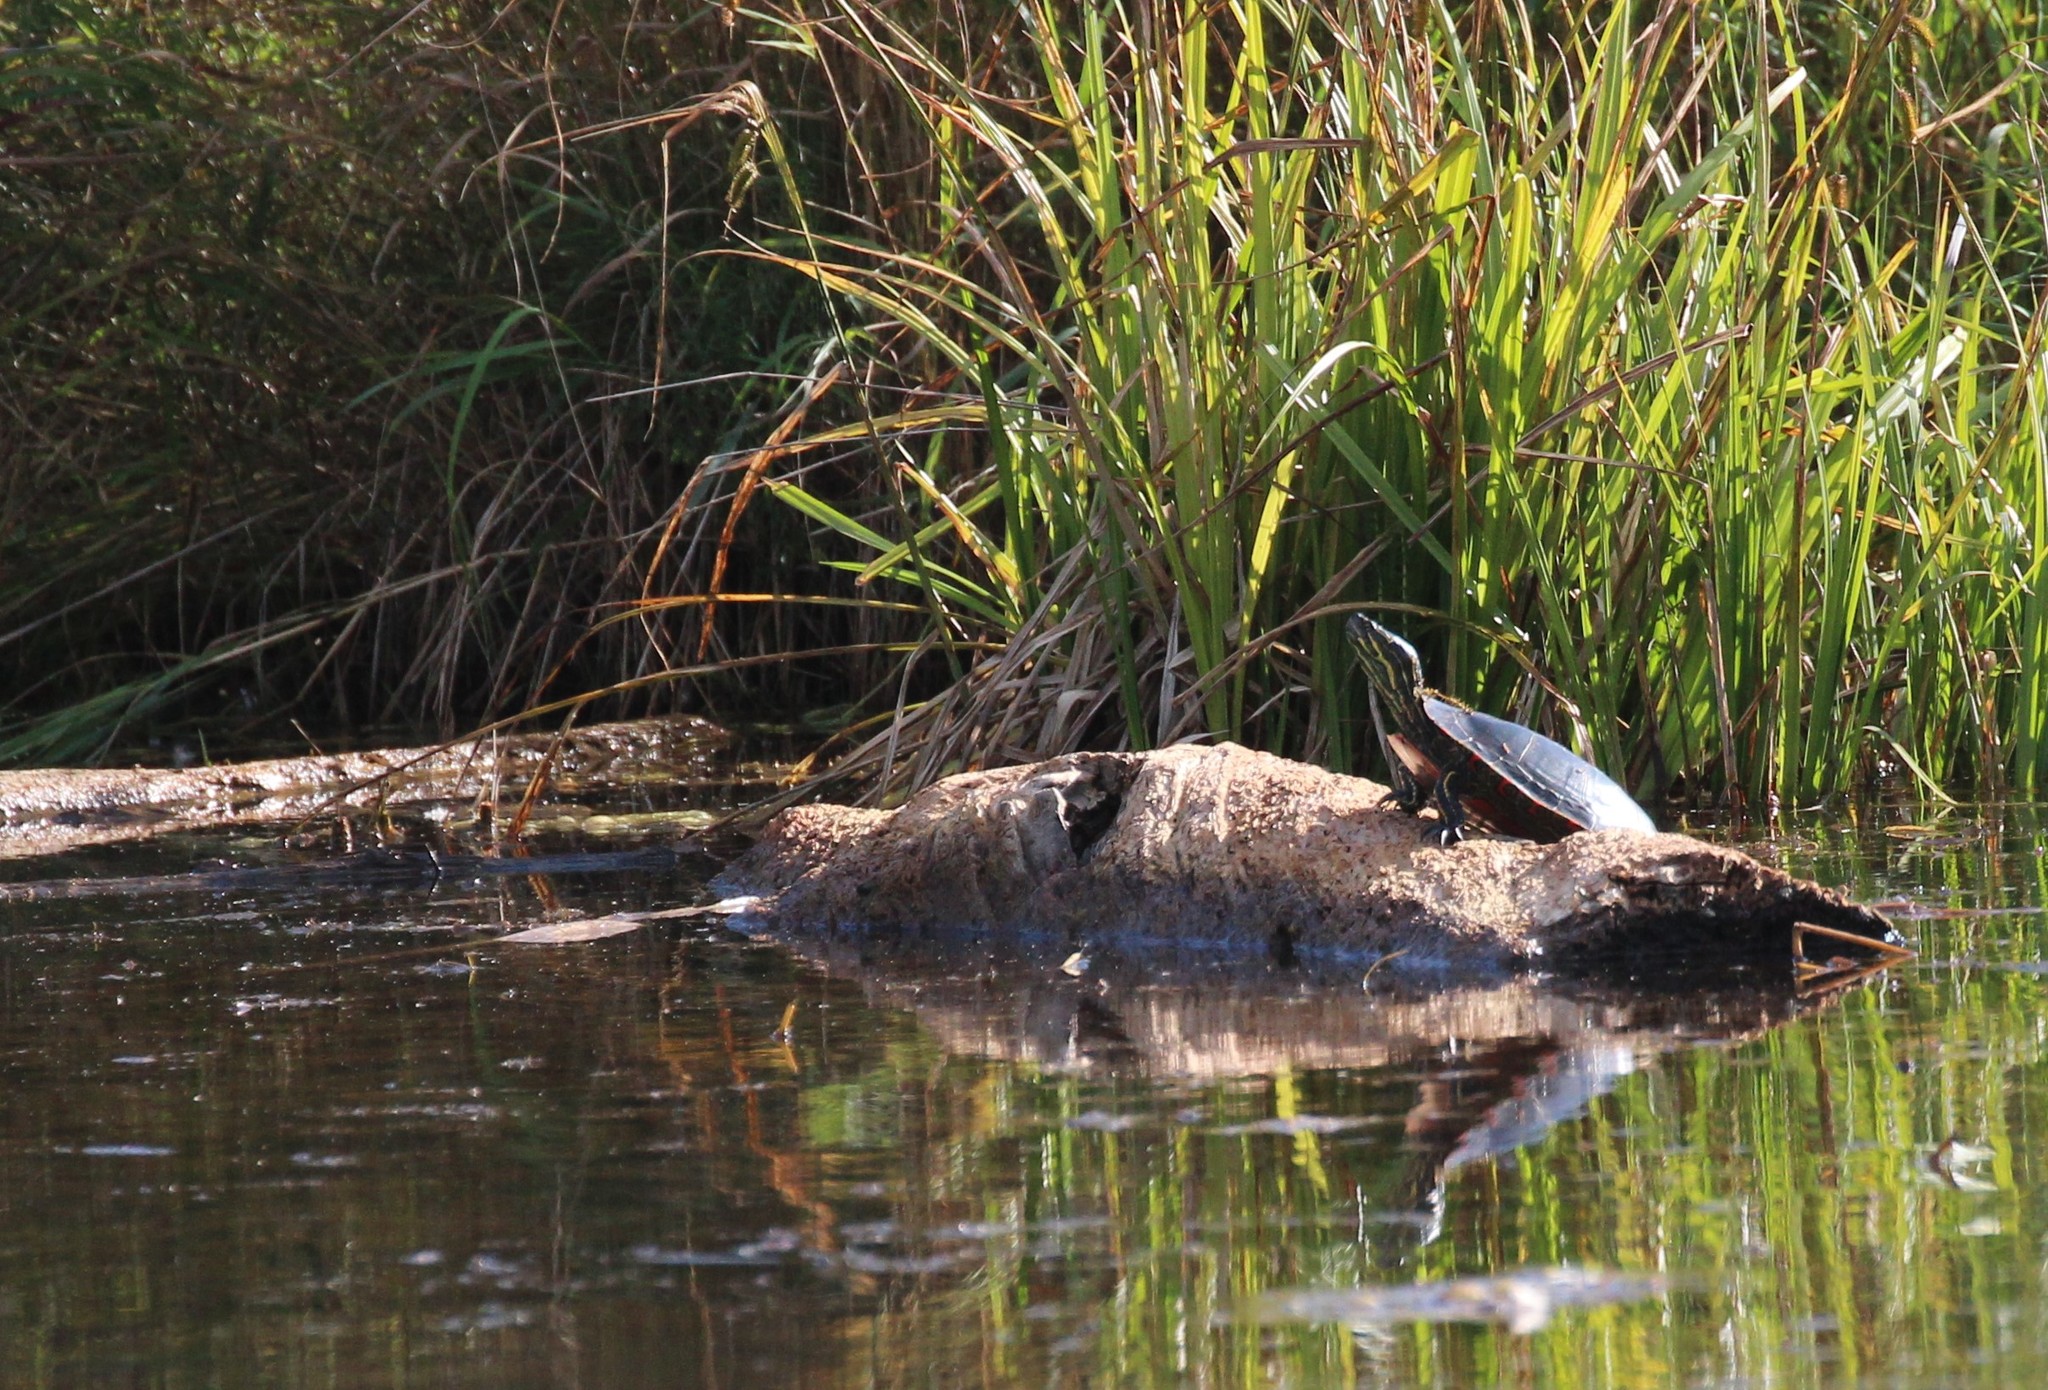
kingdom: Animalia
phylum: Chordata
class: Testudines
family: Emydidae
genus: Chrysemys
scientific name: Chrysemys picta
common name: Painted turtle
